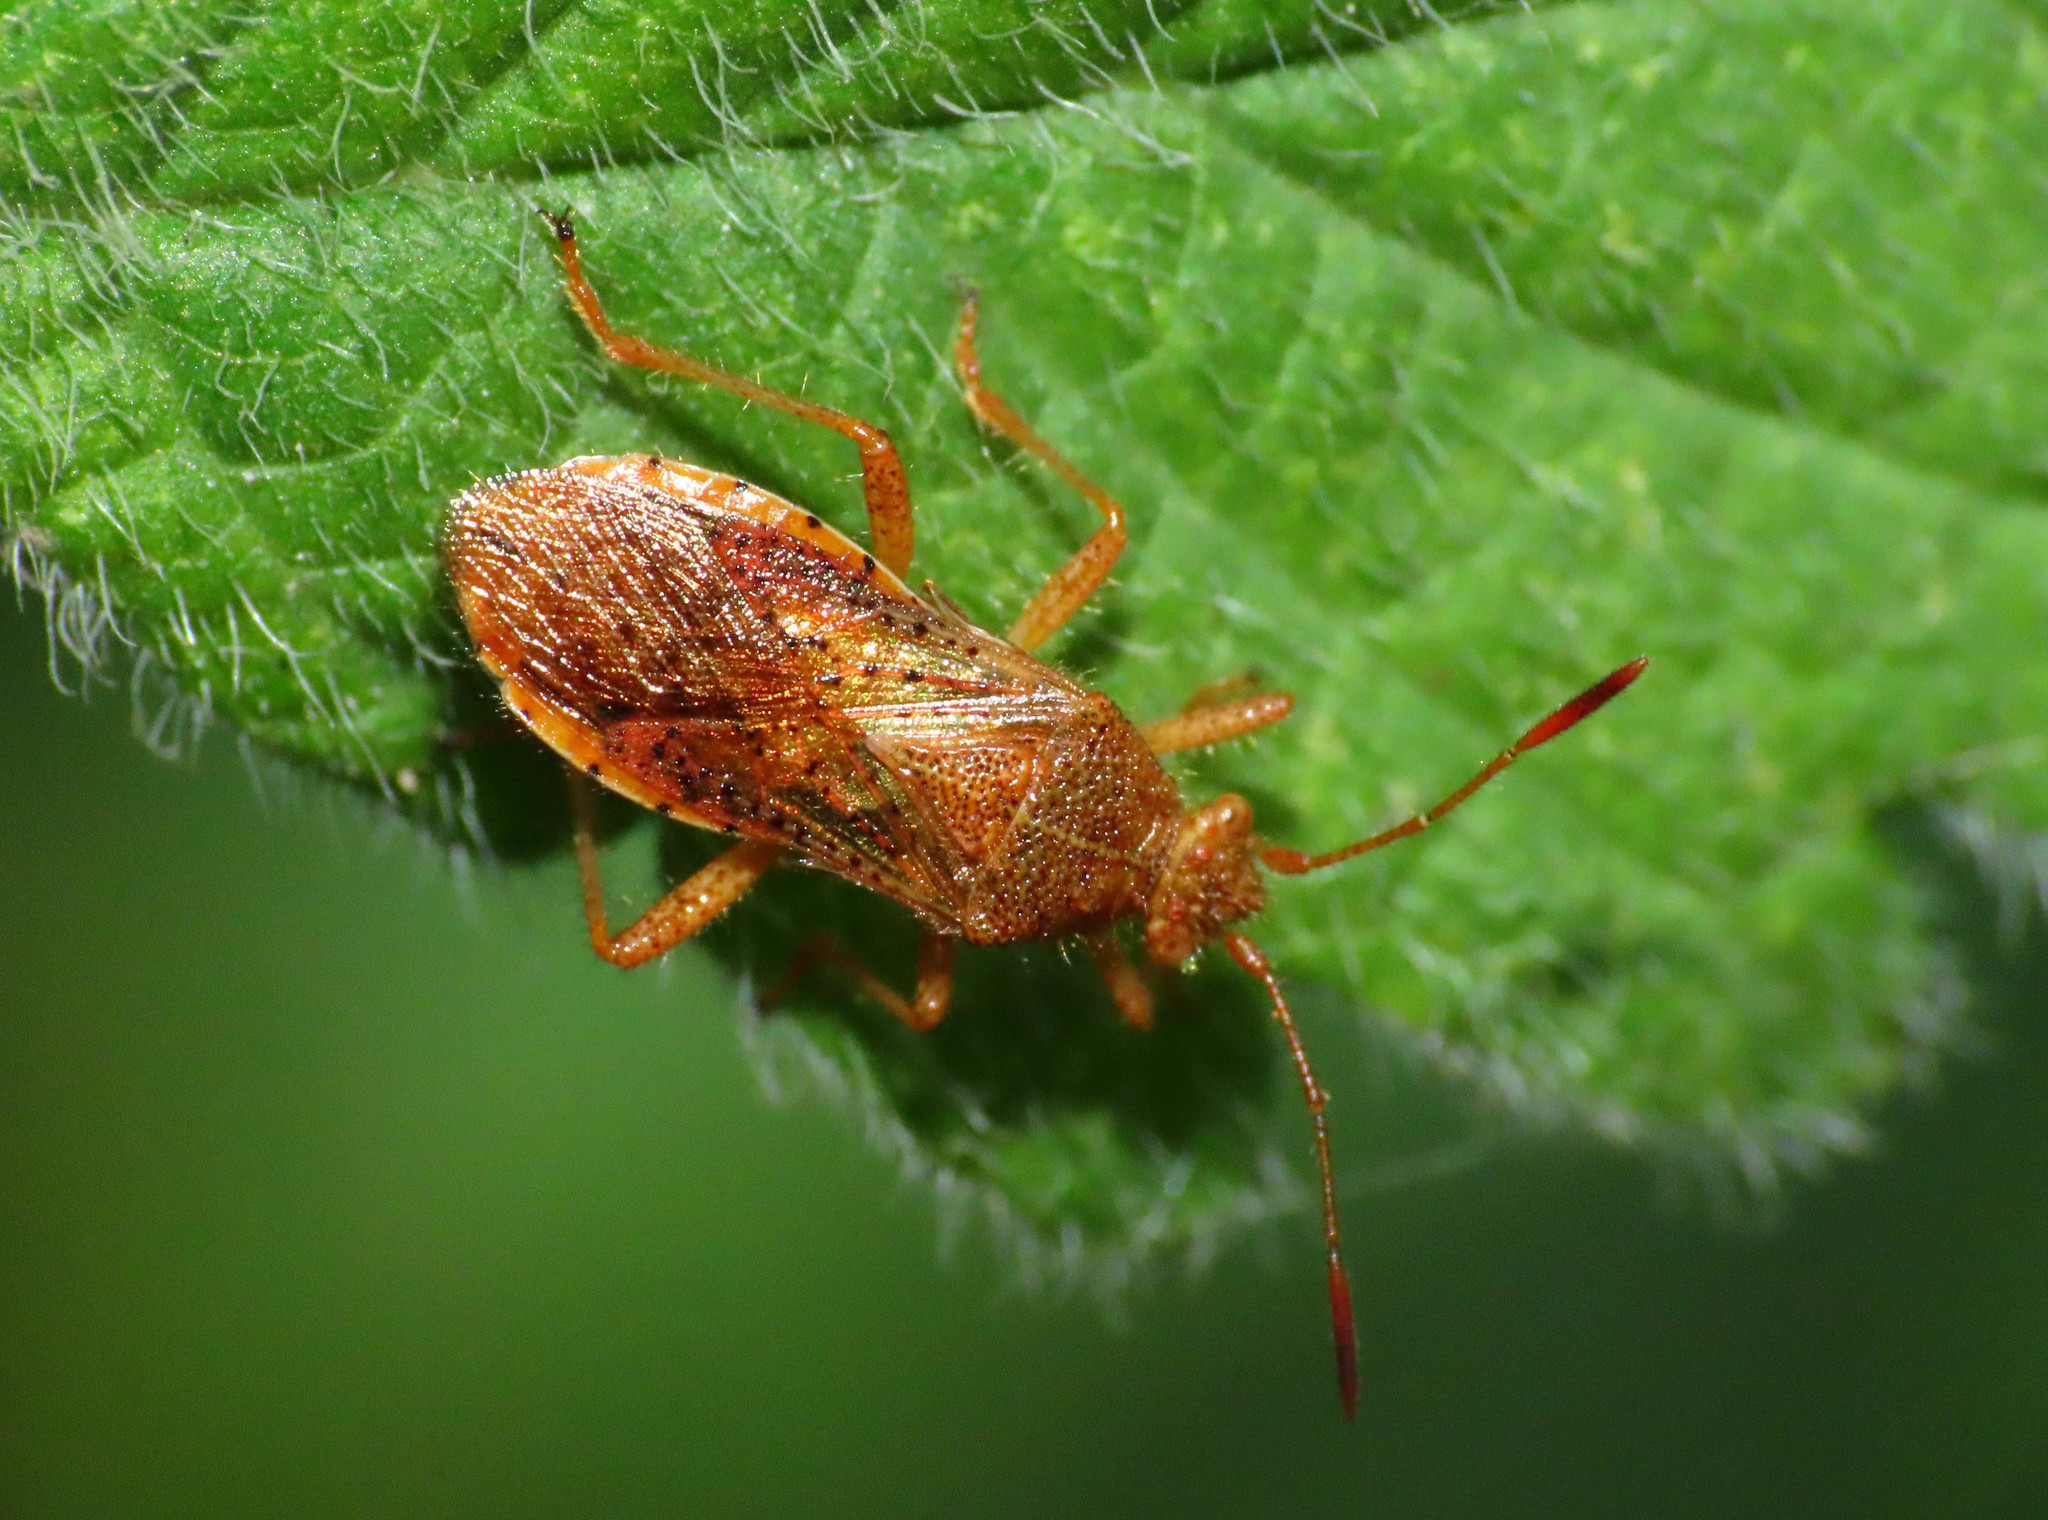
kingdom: Animalia
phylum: Arthropoda
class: Insecta
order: Hemiptera
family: Rhopalidae
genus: Rhopalus
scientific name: Rhopalus maculatus
